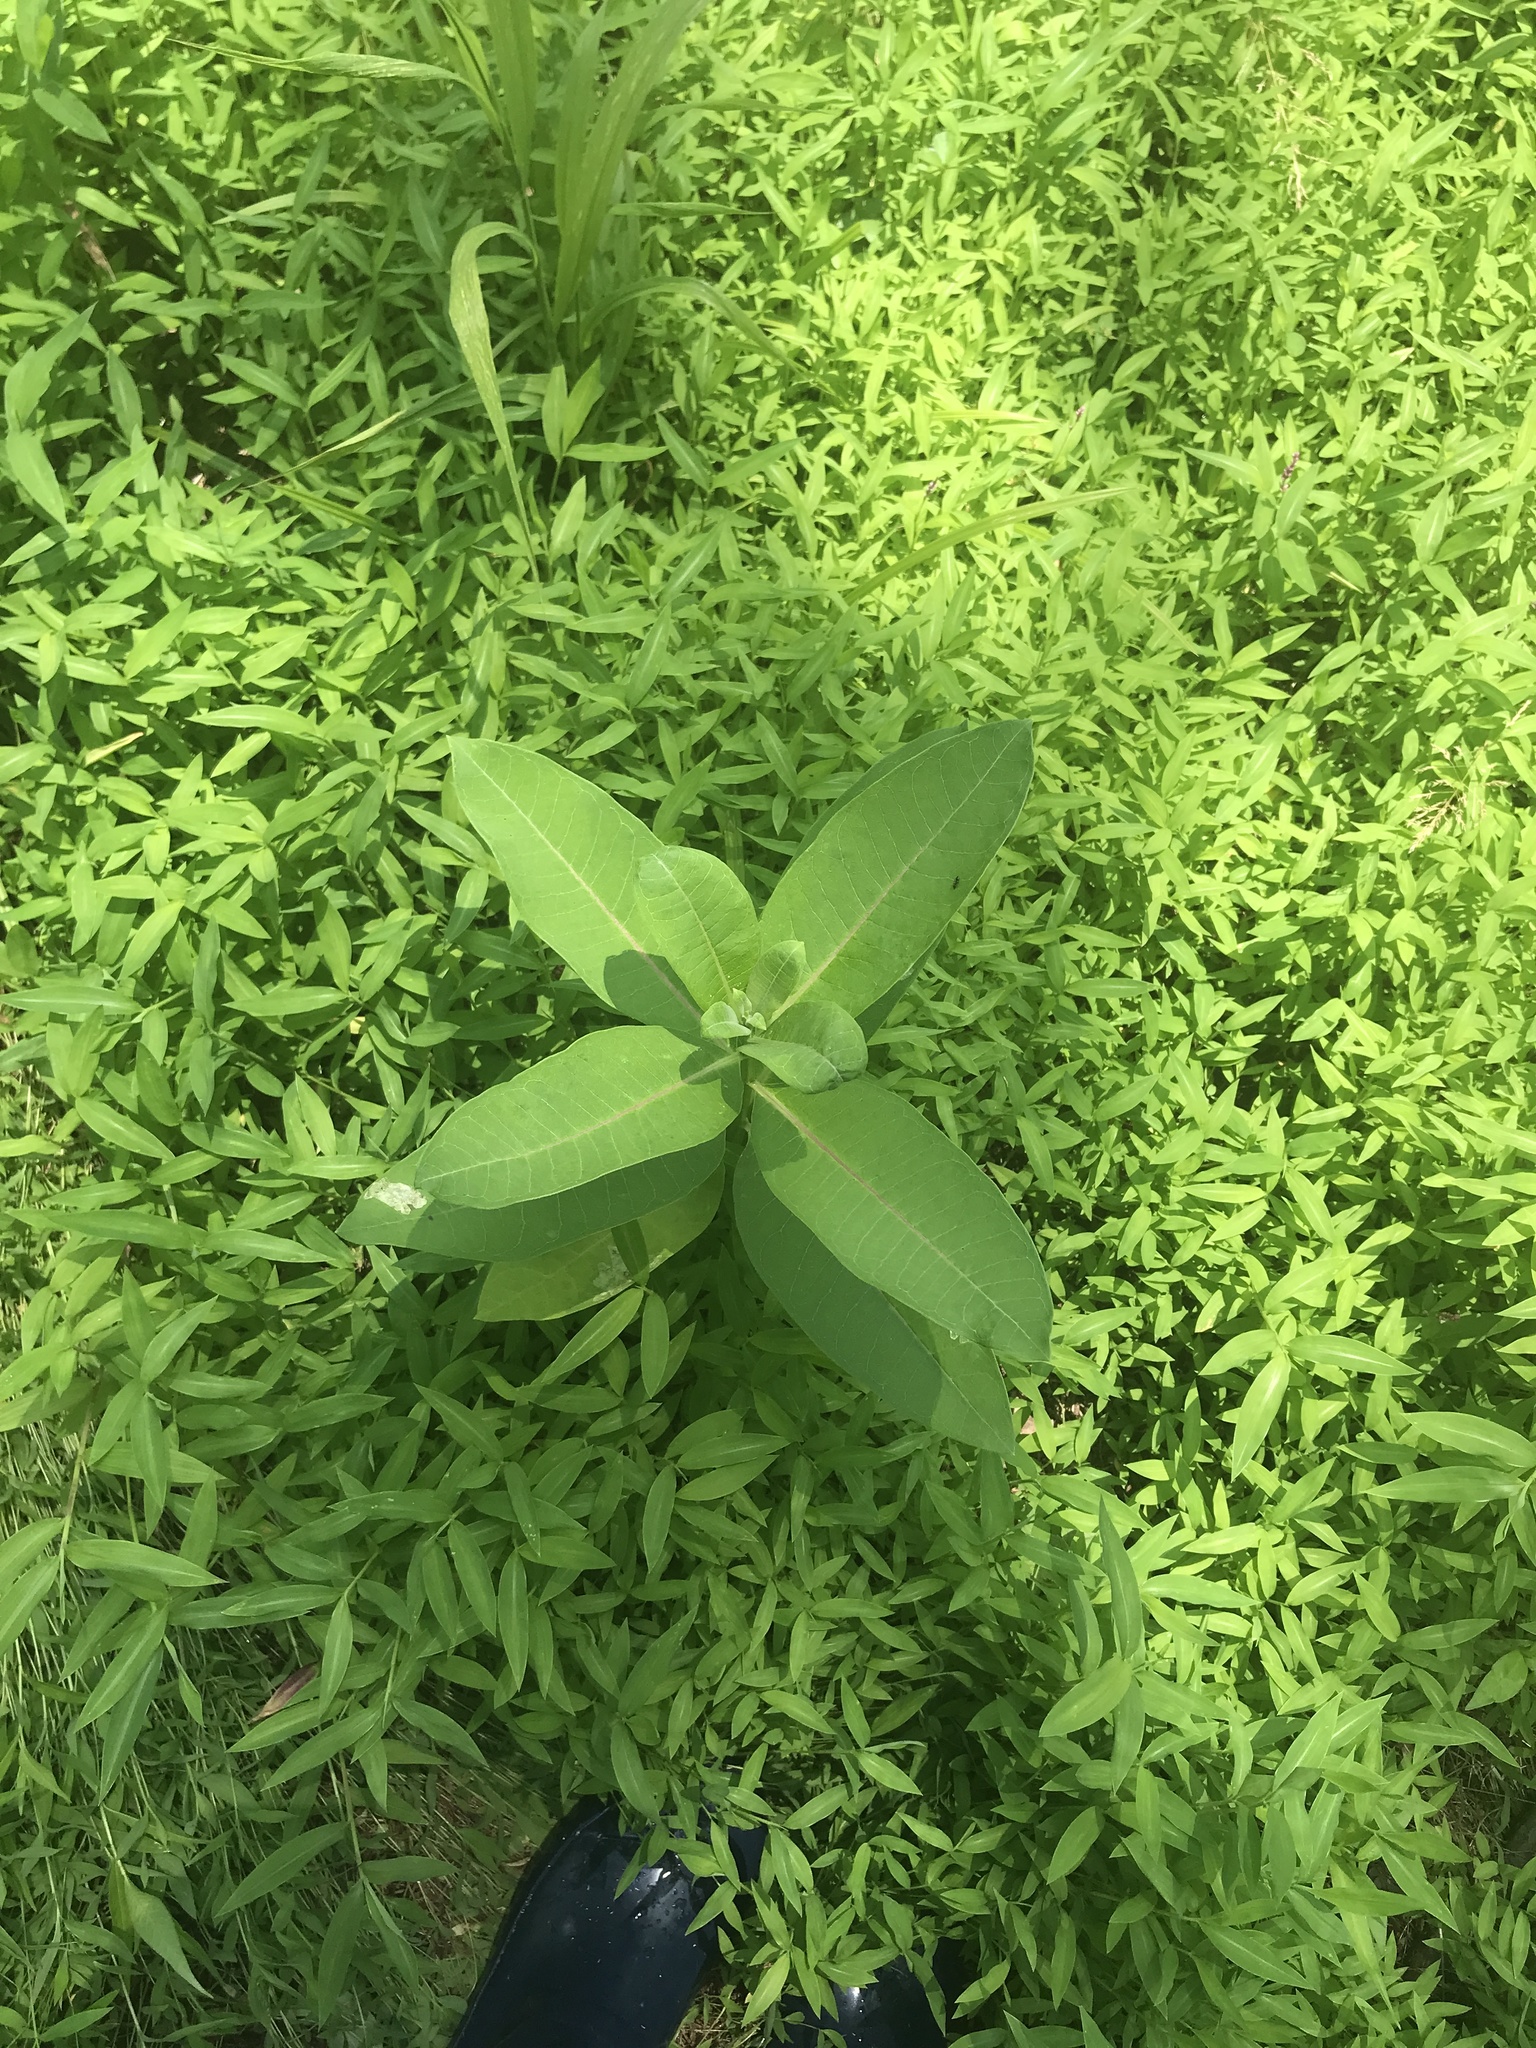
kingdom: Plantae
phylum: Tracheophyta
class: Magnoliopsida
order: Gentianales
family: Apocynaceae
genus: Asclepias
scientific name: Asclepias syriaca
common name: Common milkweed
